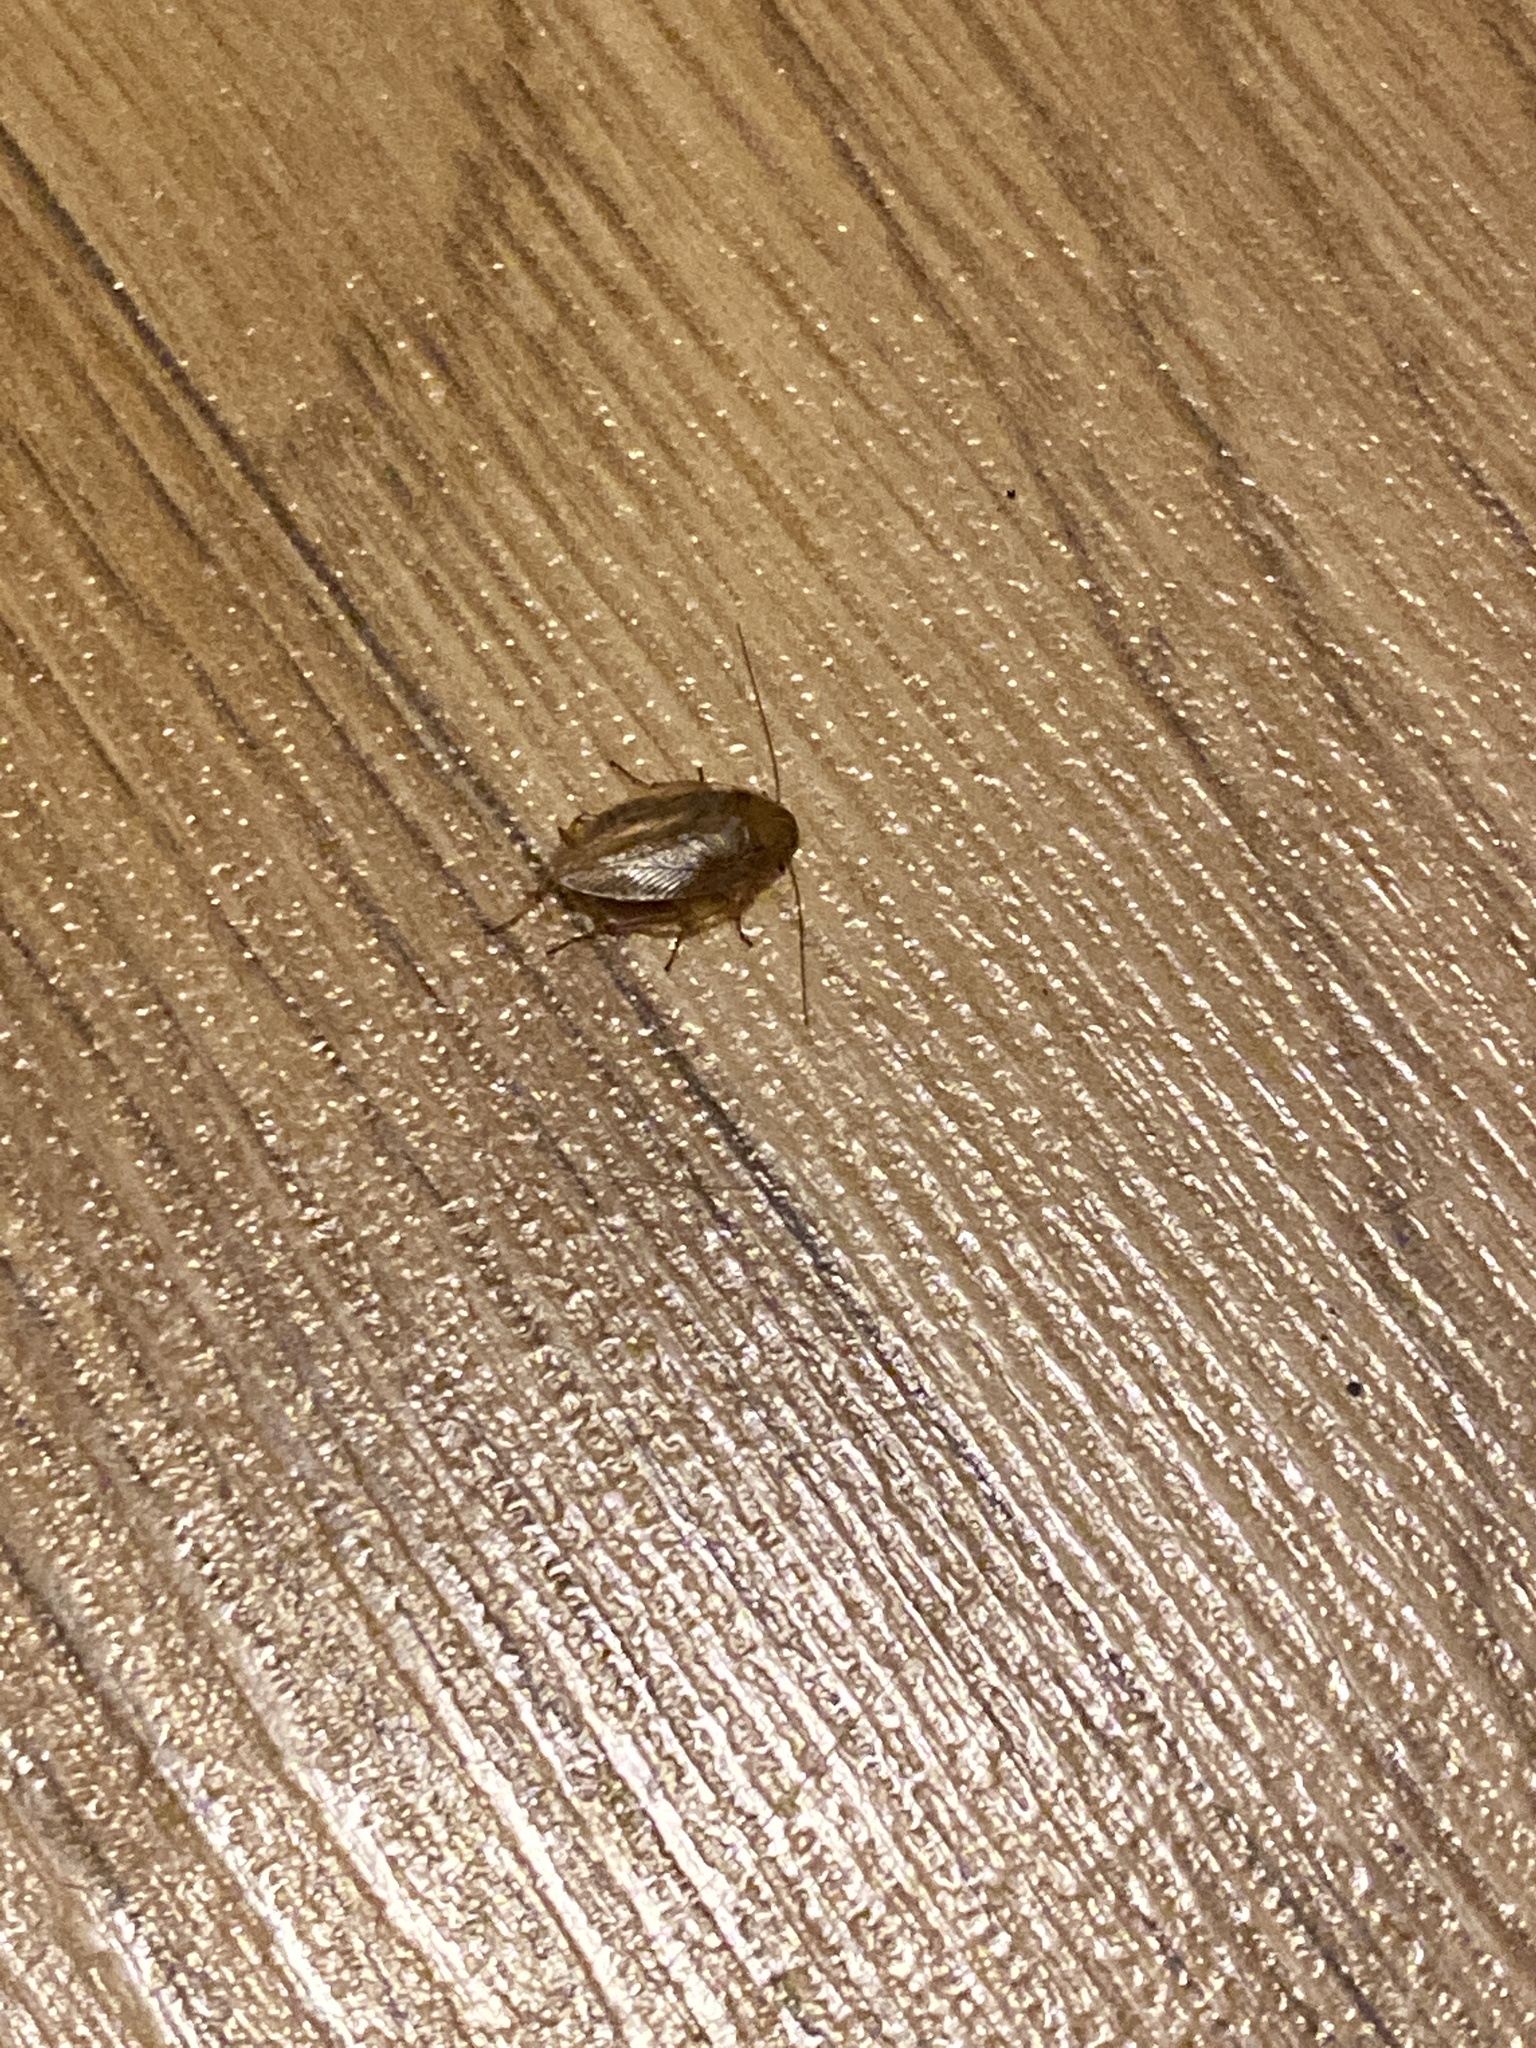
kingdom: Animalia
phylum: Arthropoda
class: Insecta
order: Blattodea
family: Ectobiidae
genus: Ectobius
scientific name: Ectobius pallidus
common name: Tawny cockroach
